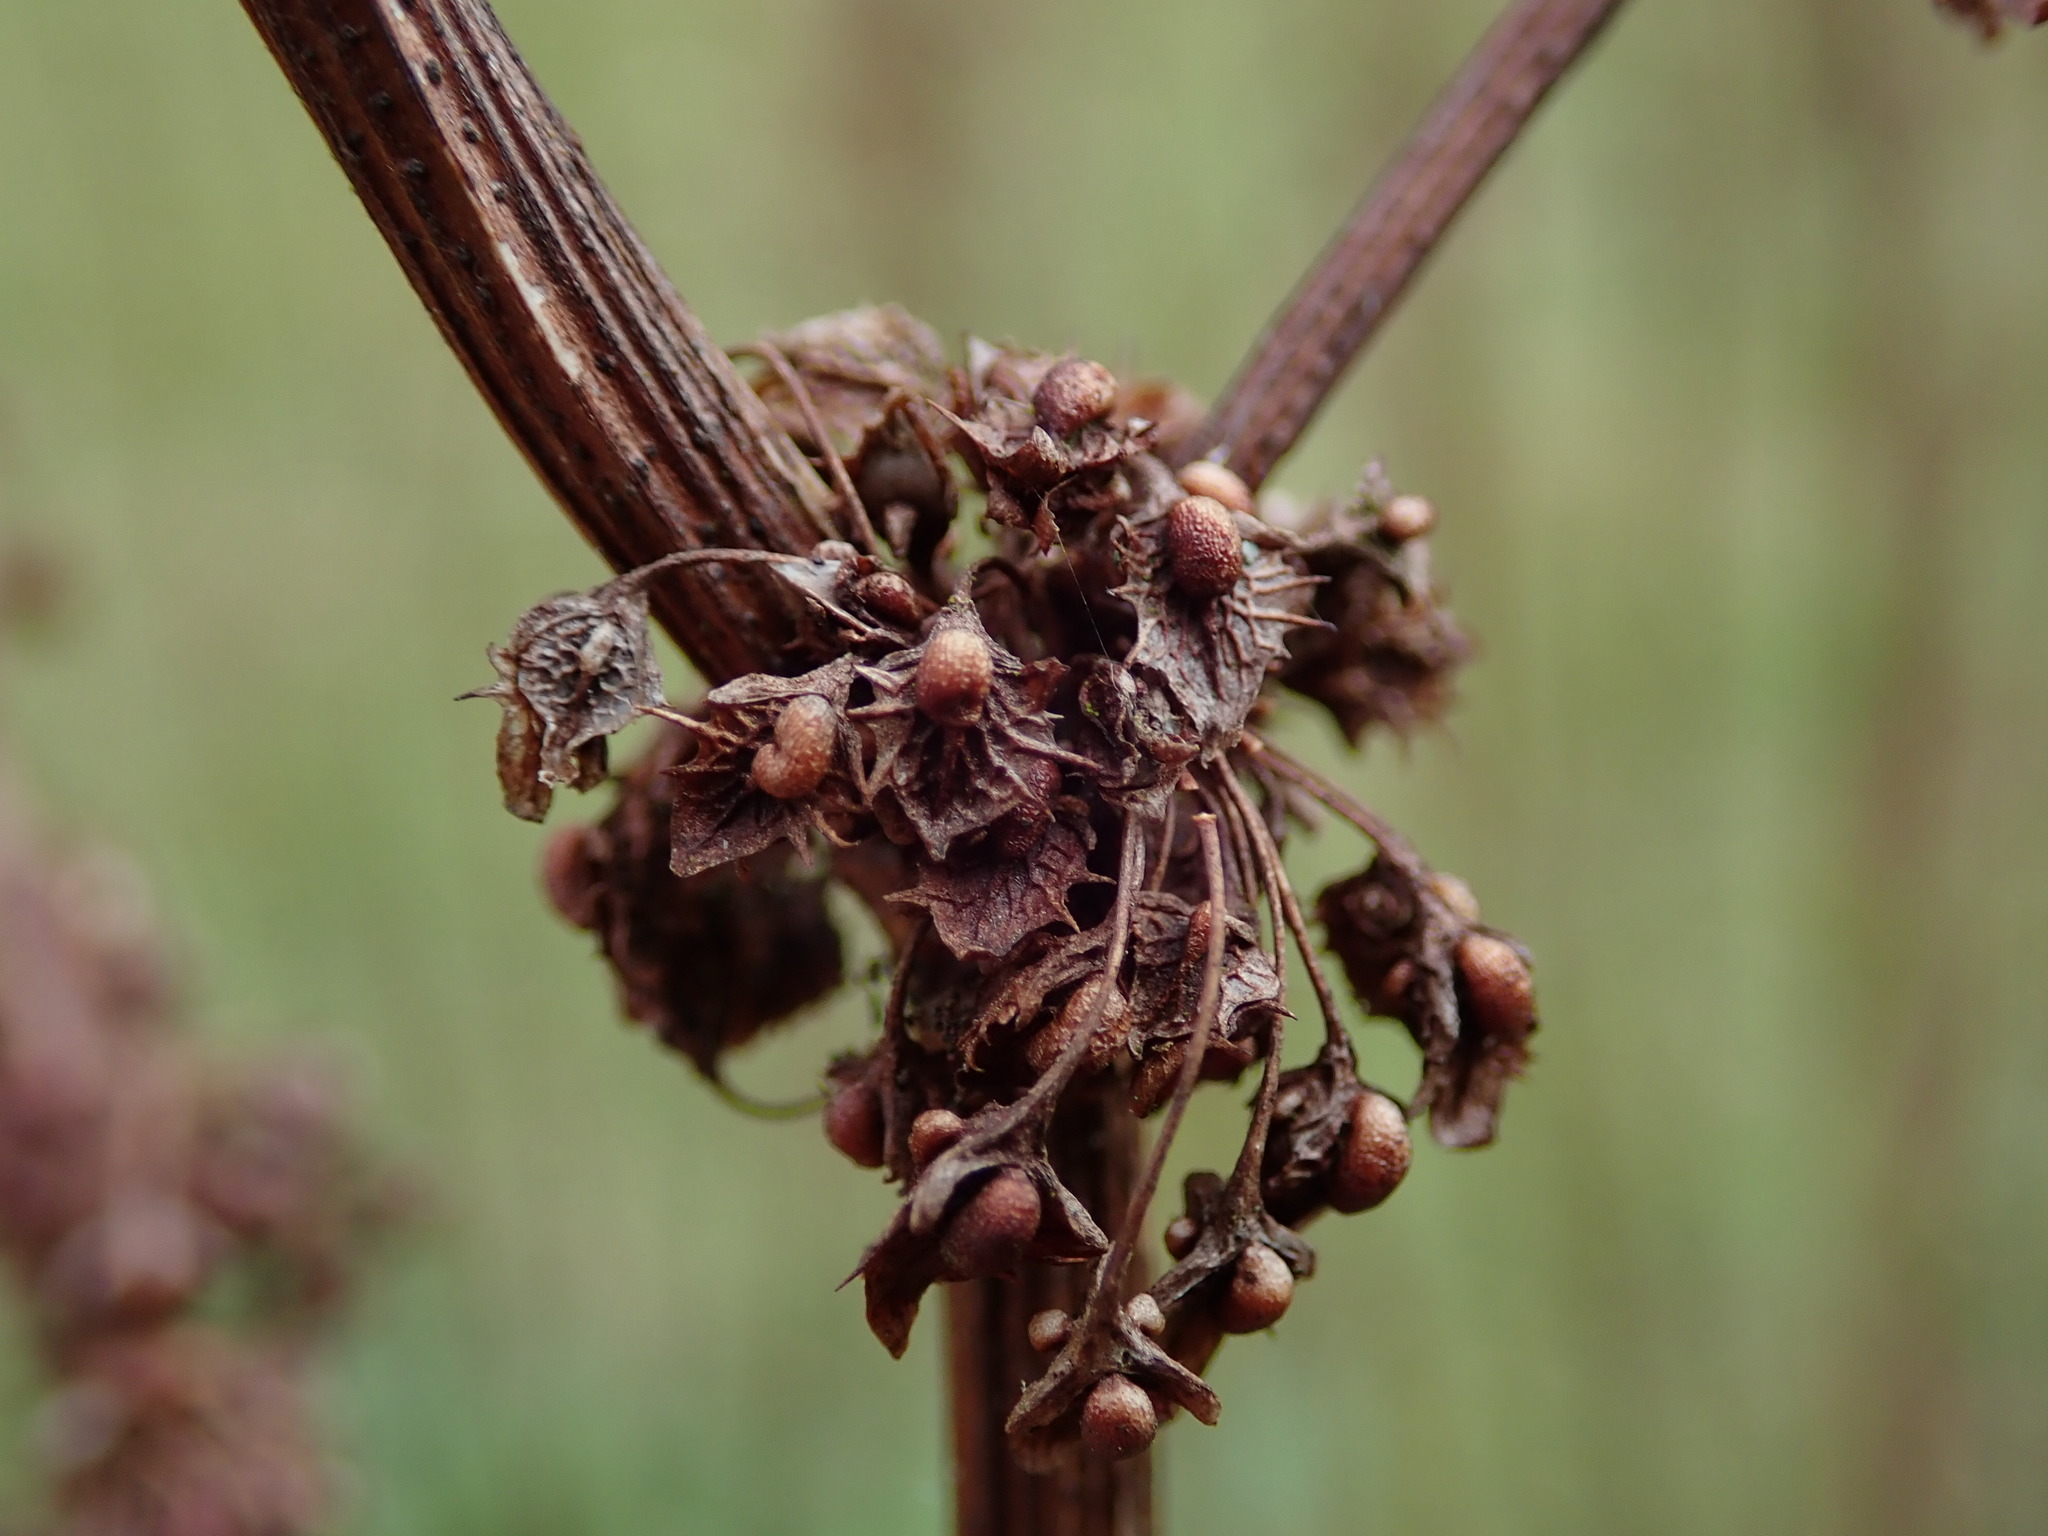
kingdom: Plantae
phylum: Tracheophyta
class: Magnoliopsida
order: Caryophyllales
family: Polygonaceae
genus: Rumex
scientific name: Rumex obtusifolius
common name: Bitter dock
